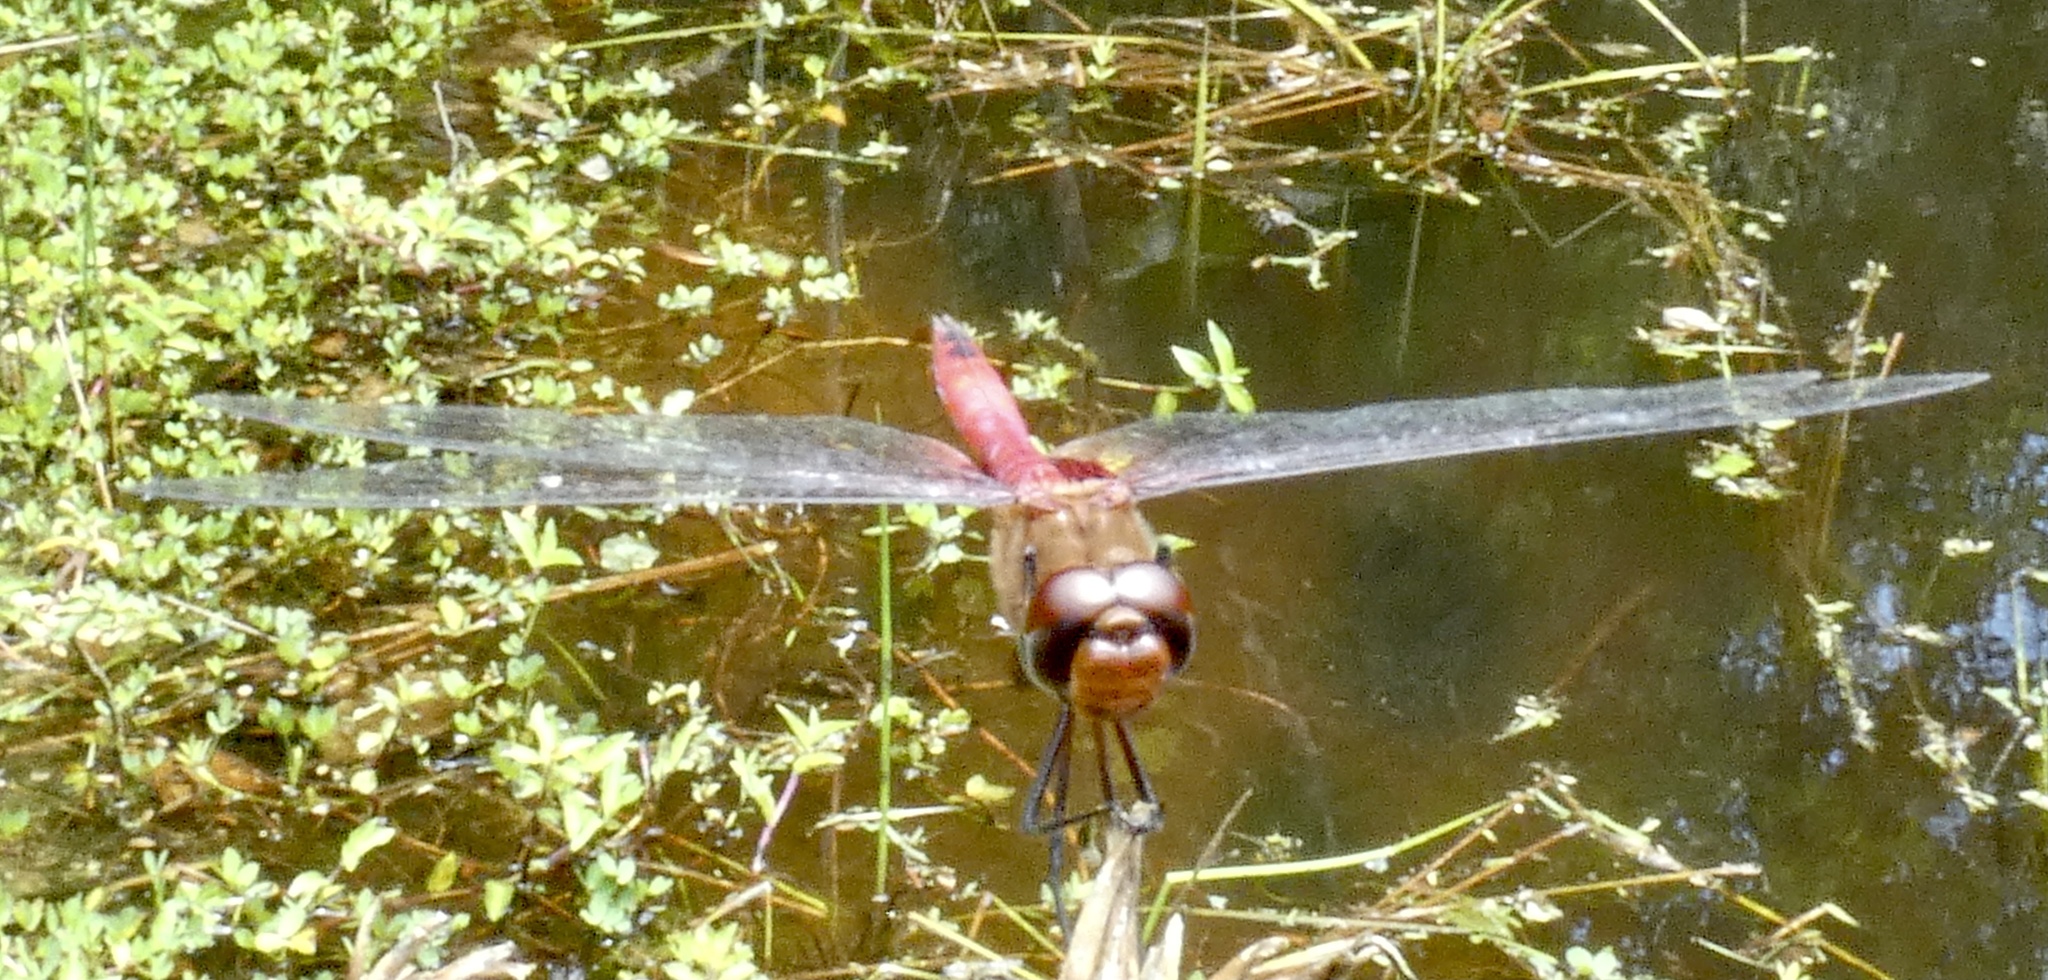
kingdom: Animalia
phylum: Arthropoda
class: Insecta
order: Odonata
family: Libellulidae
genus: Brachymesia
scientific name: Brachymesia furcata
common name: Red-taled pennant
